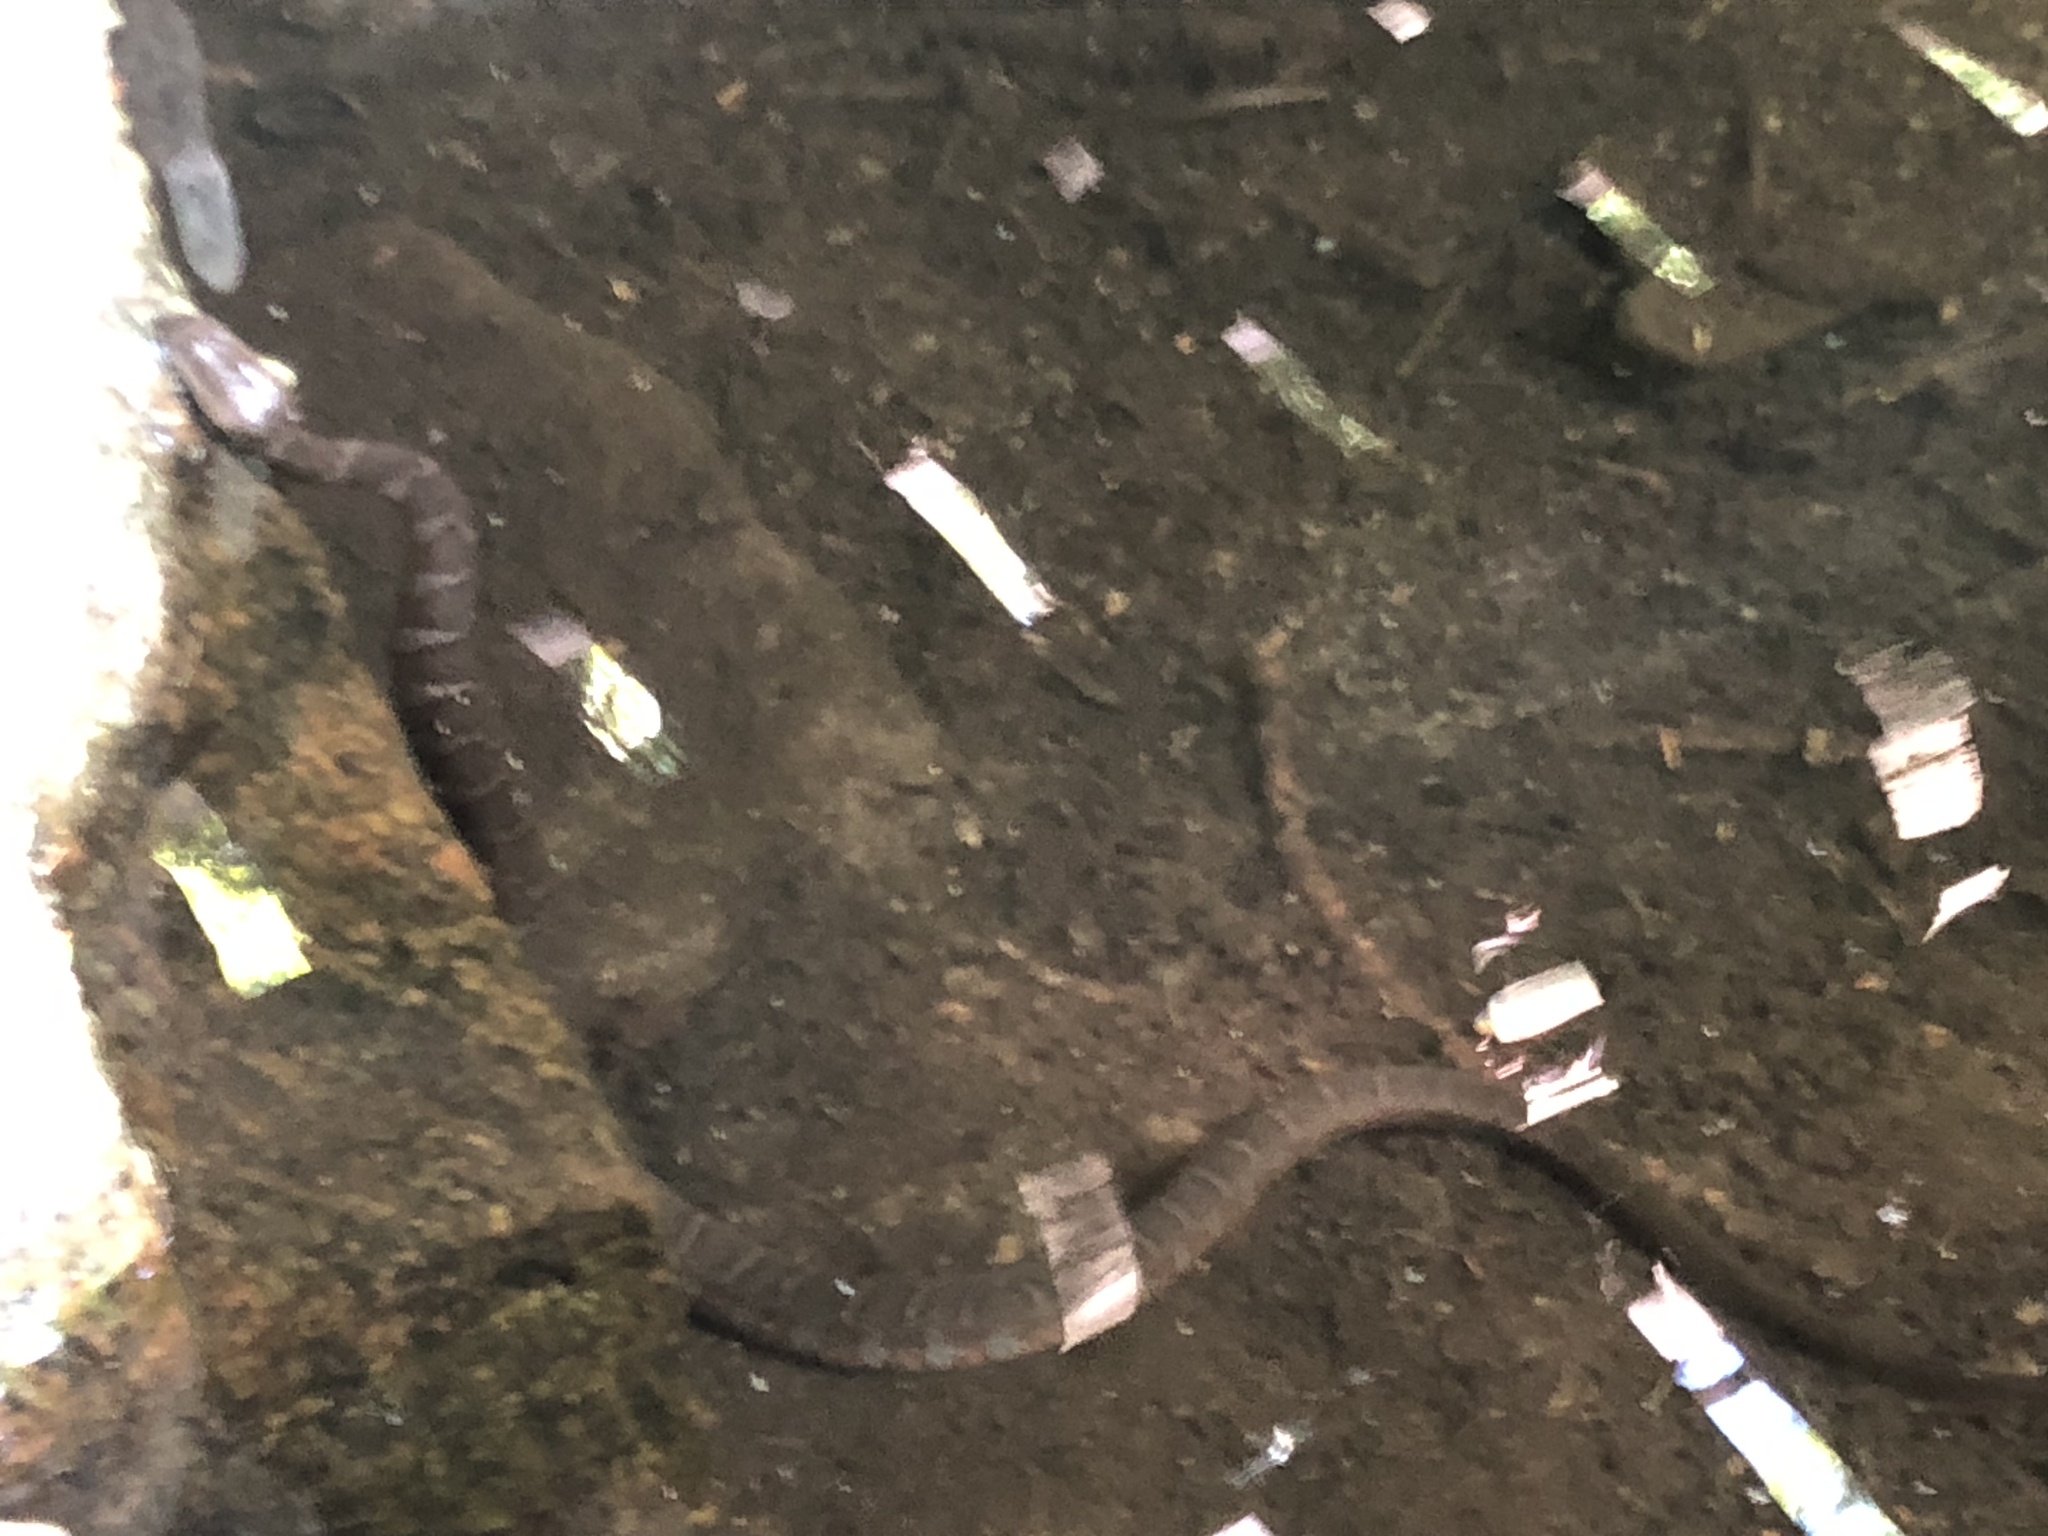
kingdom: Animalia
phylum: Chordata
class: Squamata
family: Colubridae
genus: Nerodia
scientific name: Nerodia sipedon
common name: Northern water snake
